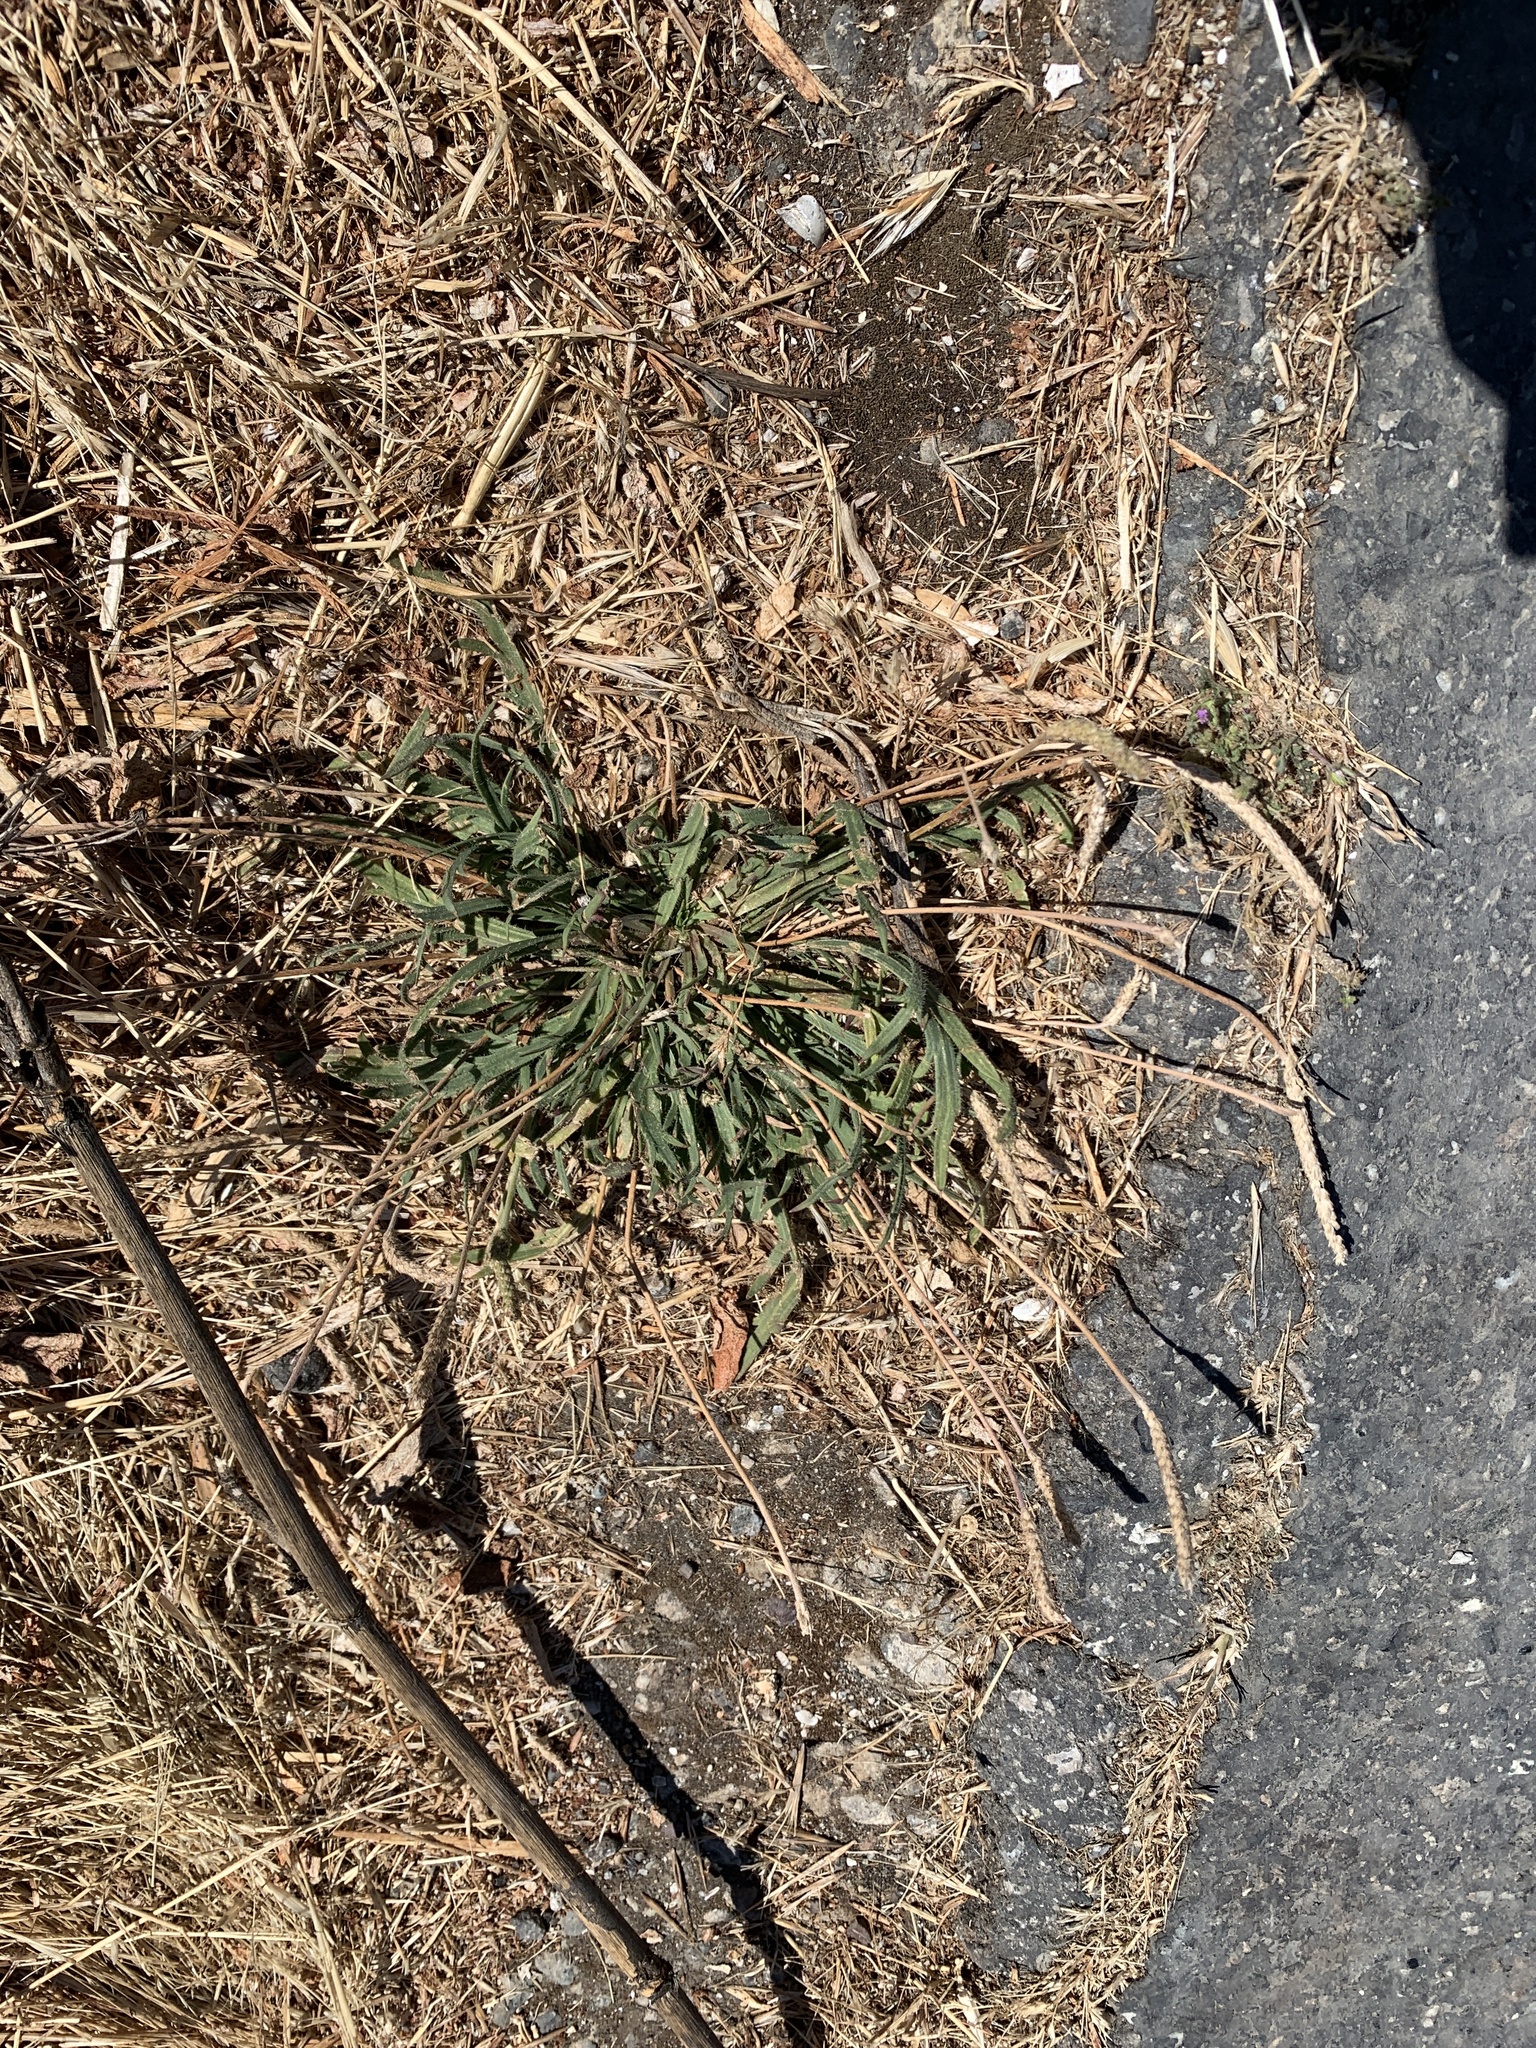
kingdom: Plantae
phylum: Tracheophyta
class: Magnoliopsida
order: Lamiales
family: Plantaginaceae
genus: Plantago
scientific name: Plantago coronopus
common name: Buck's-horn plantain
